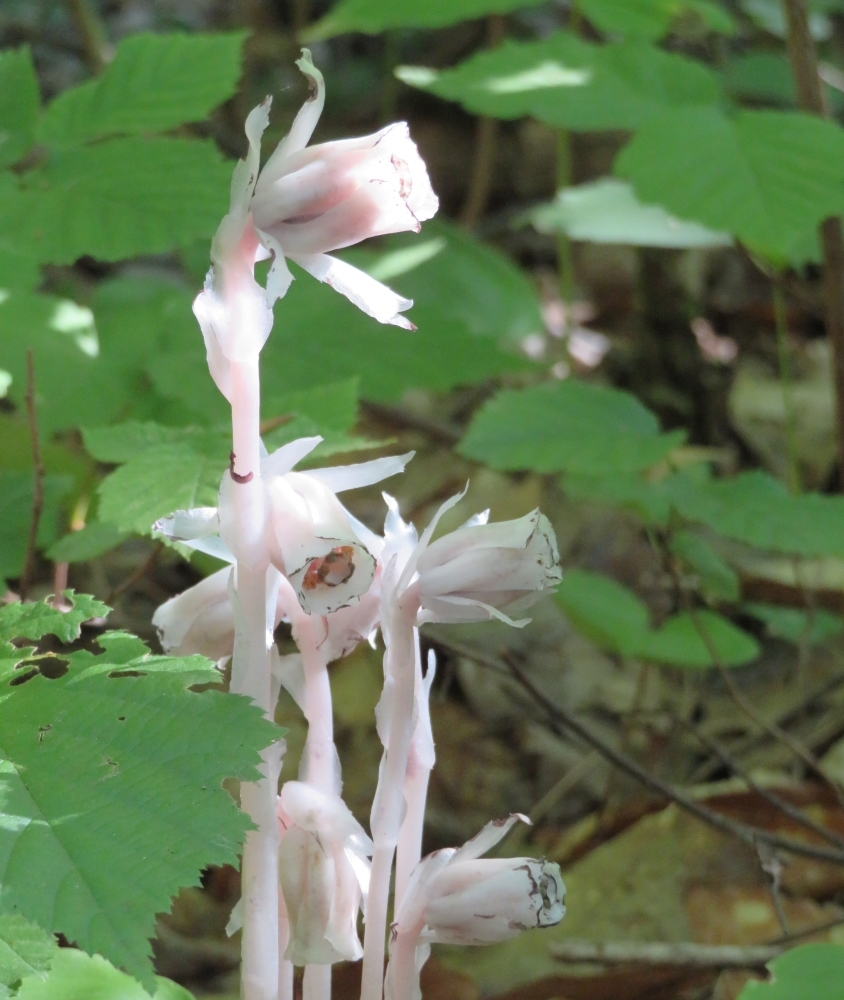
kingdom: Plantae
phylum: Tracheophyta
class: Magnoliopsida
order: Ericales
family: Ericaceae
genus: Monotropa
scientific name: Monotropa uniflora
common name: Convulsion root
